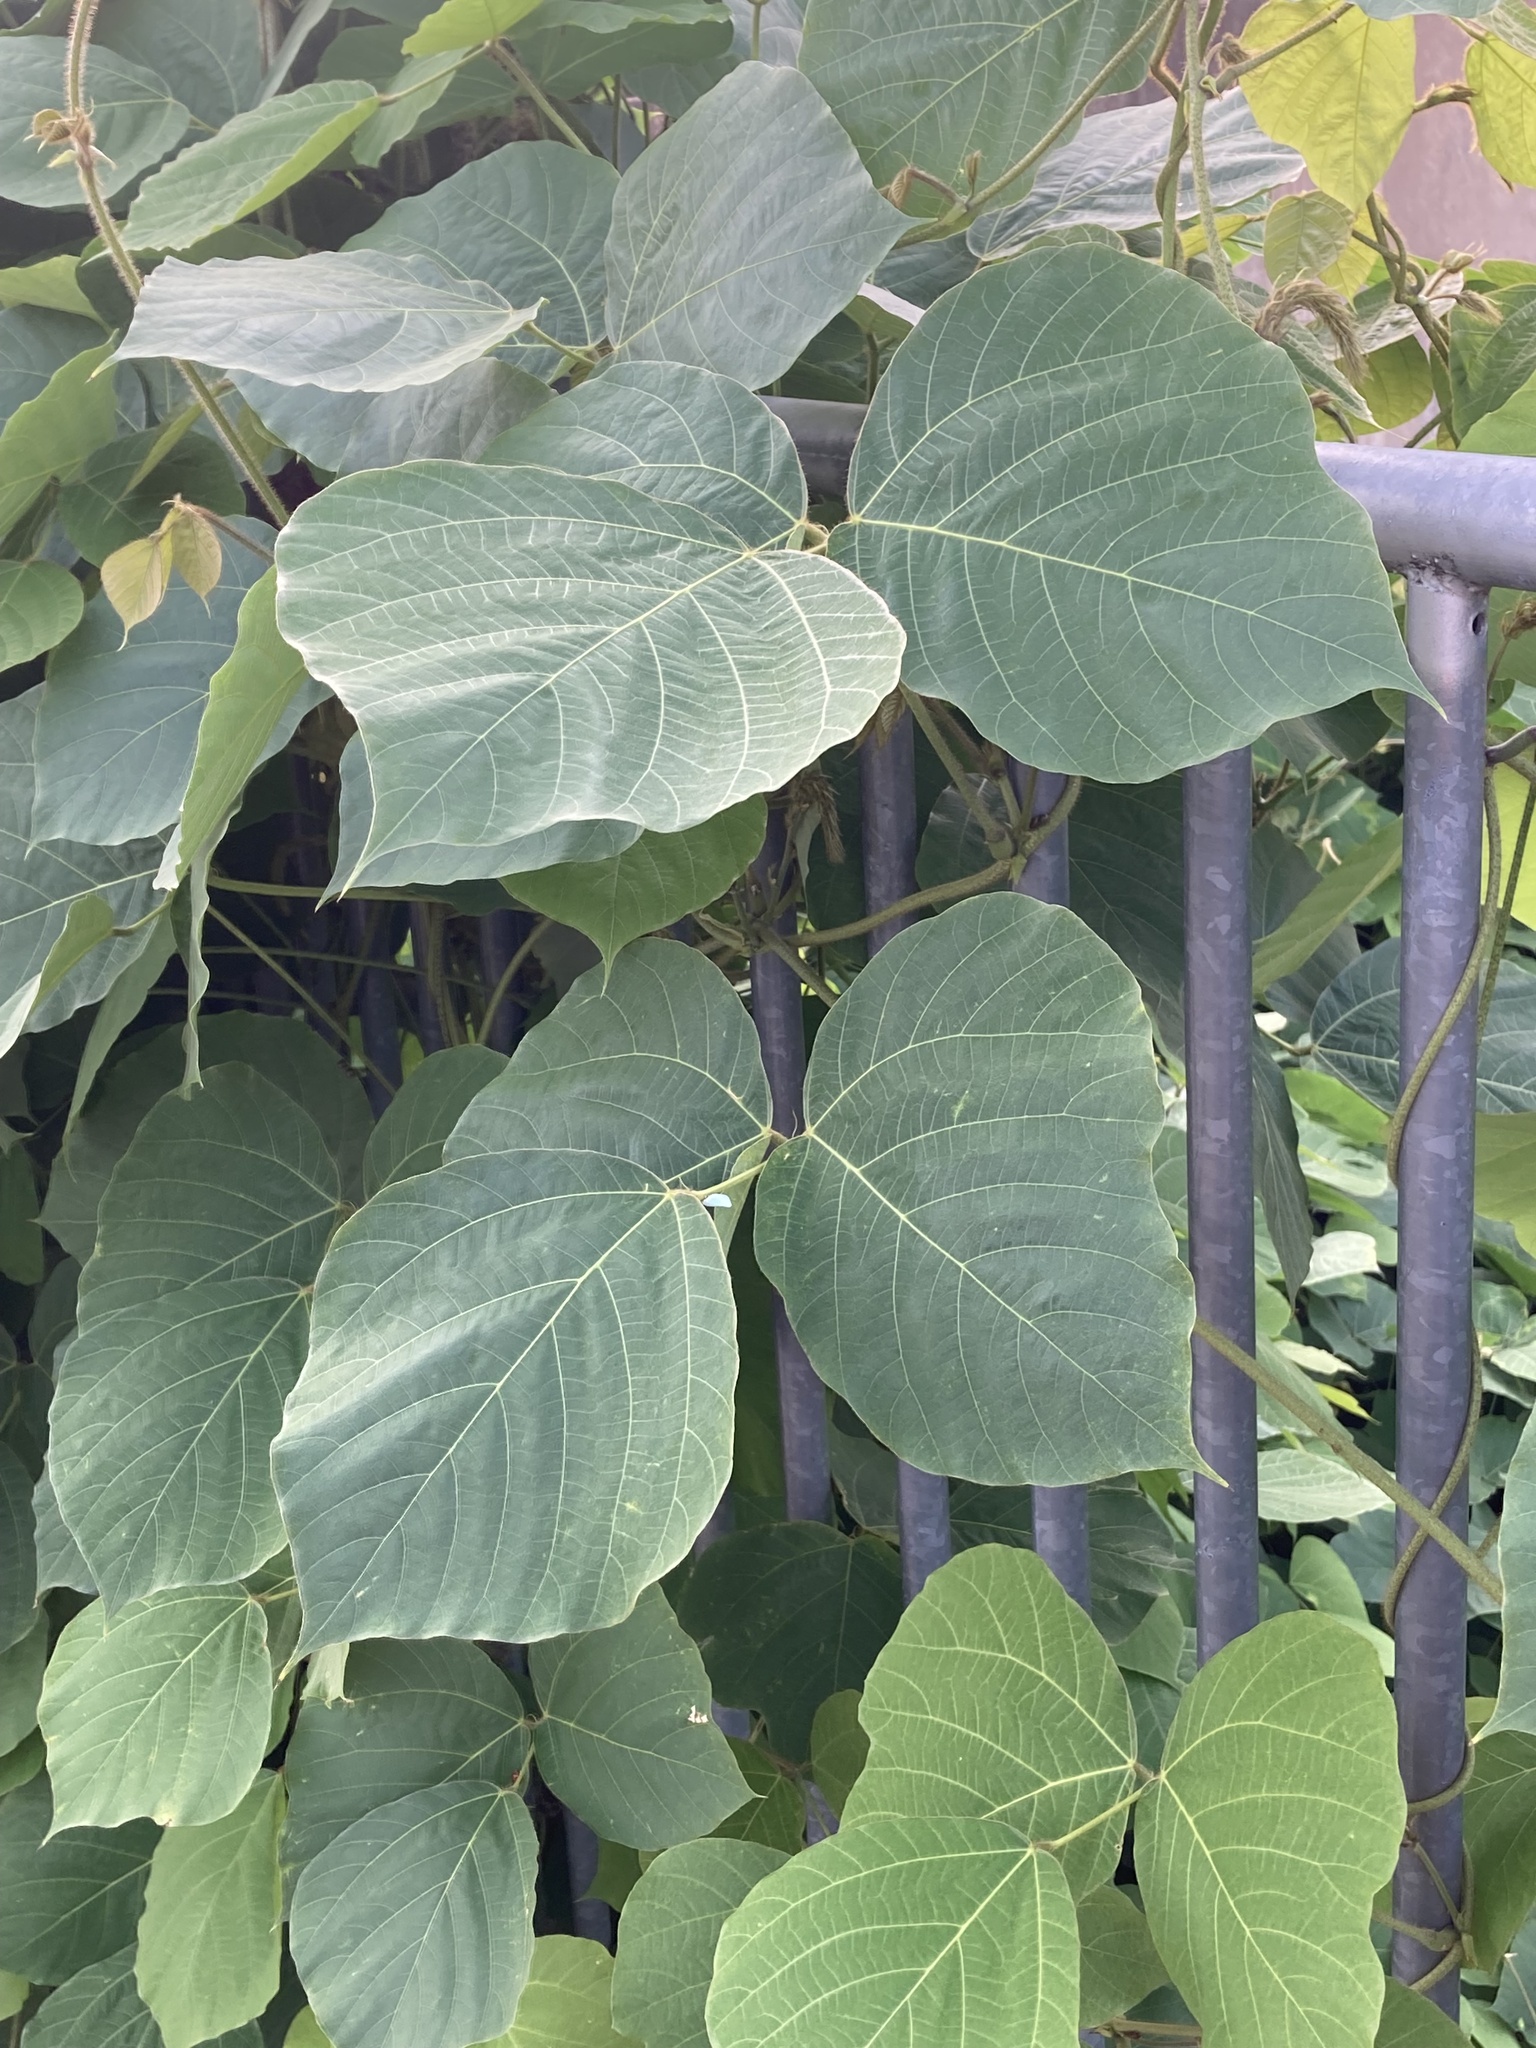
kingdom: Plantae
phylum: Tracheophyta
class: Magnoliopsida
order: Fabales
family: Fabaceae
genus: Pueraria
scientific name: Pueraria montana
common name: Kudzu
